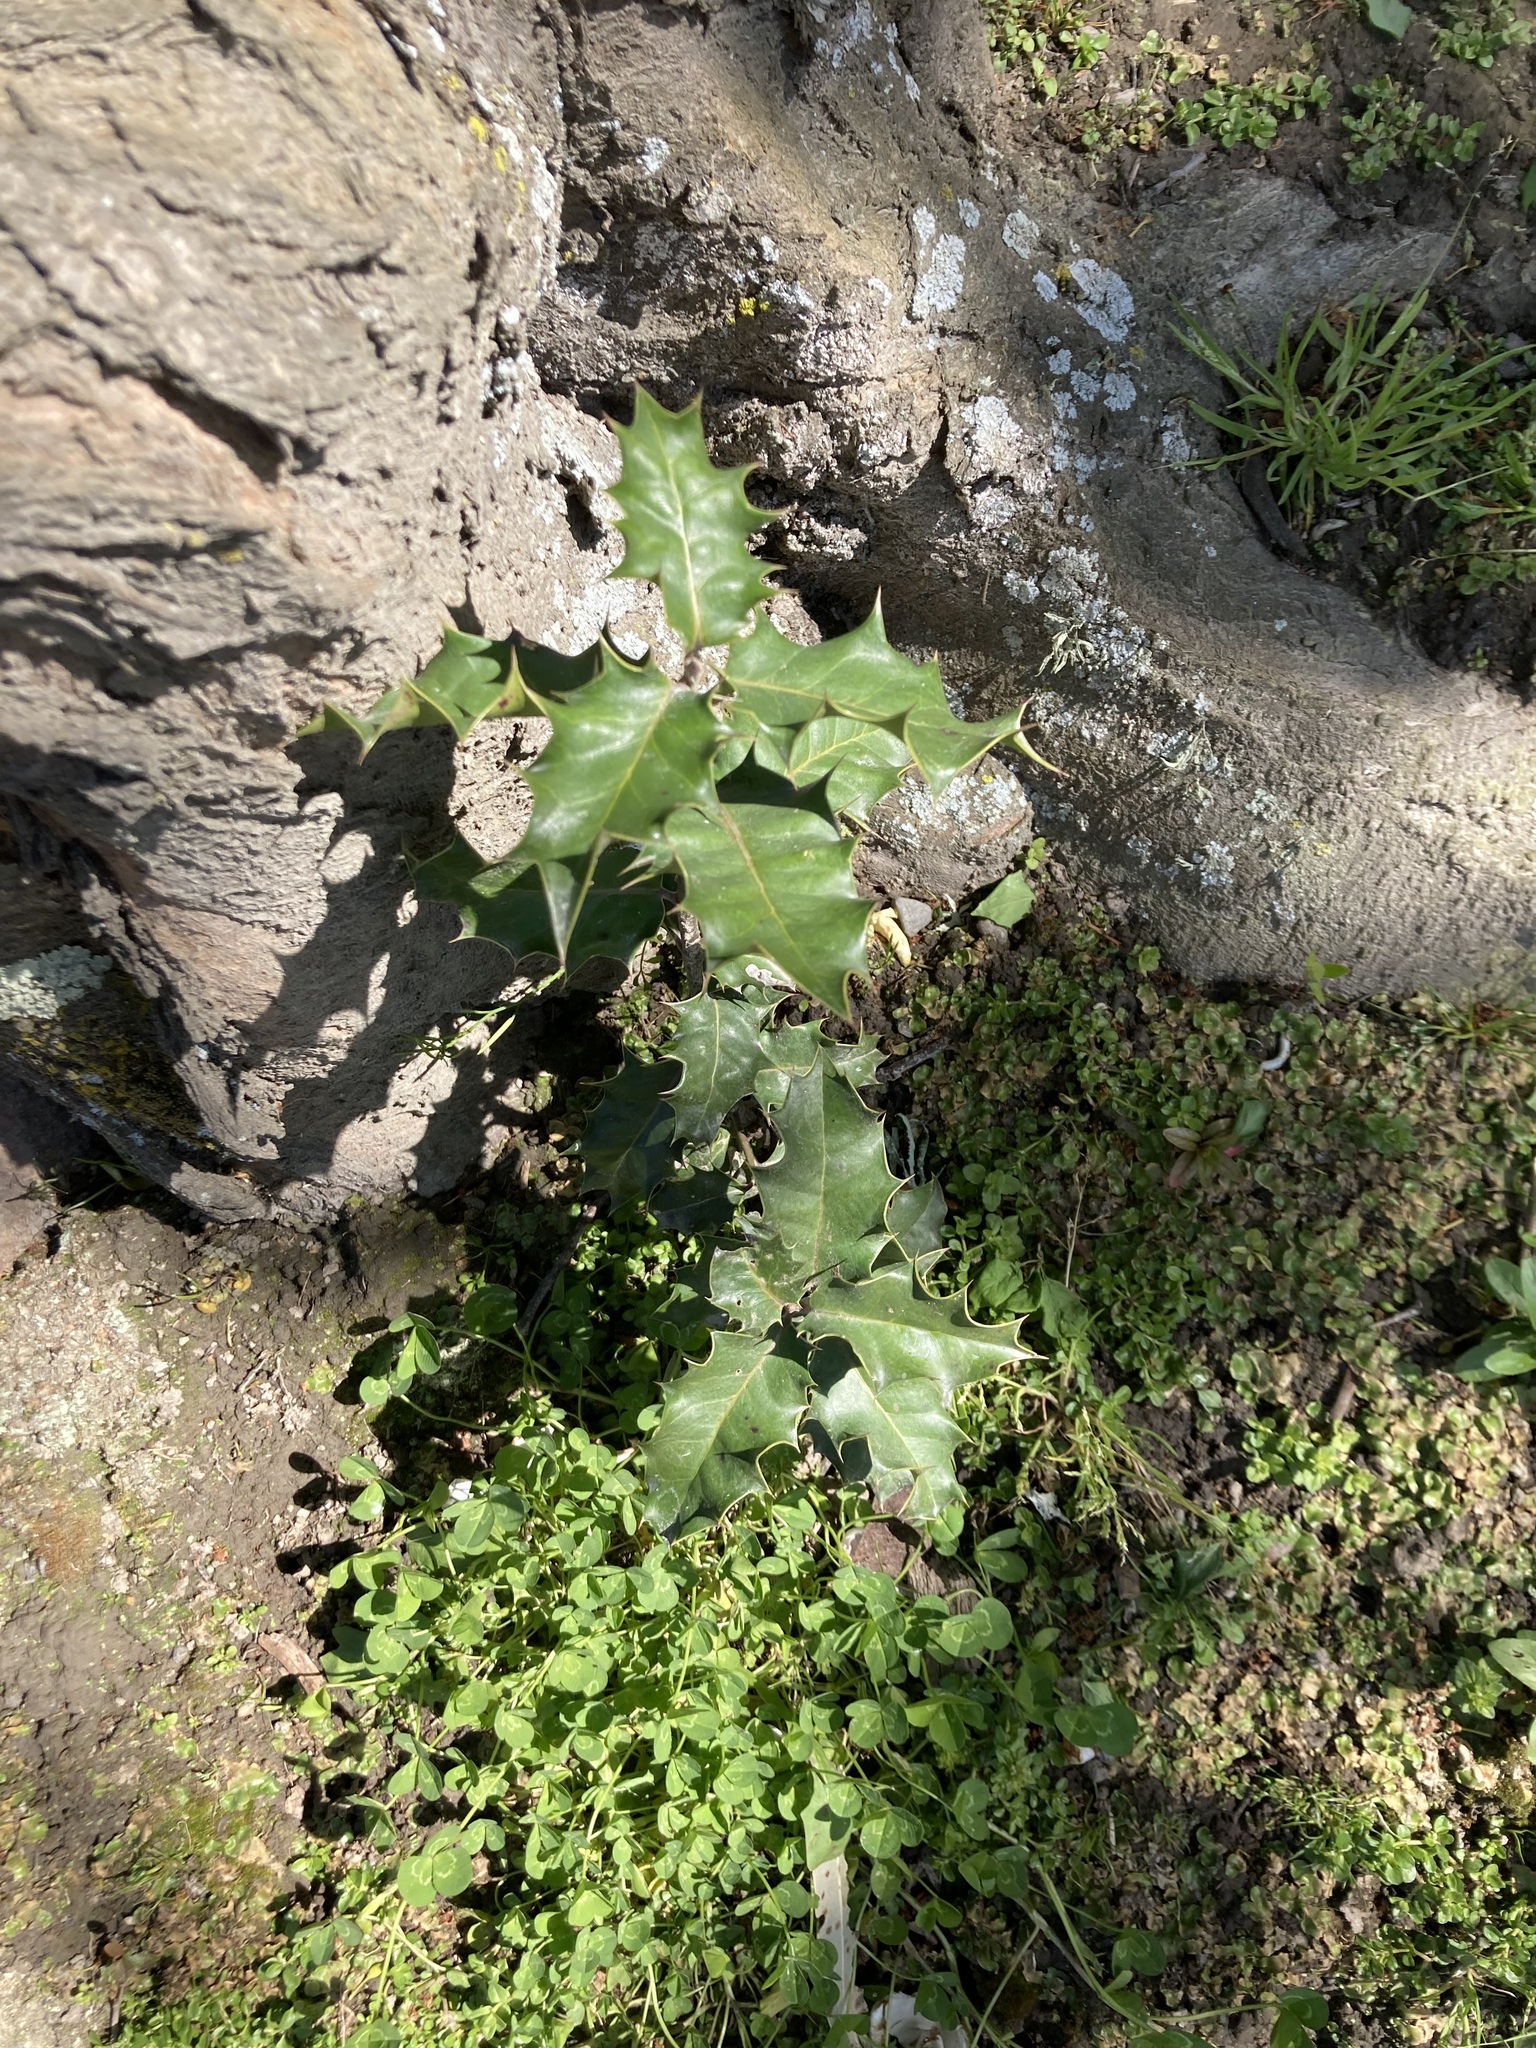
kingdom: Plantae
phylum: Tracheophyta
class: Magnoliopsida
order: Aquifoliales
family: Aquifoliaceae
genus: Ilex
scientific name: Ilex aquifolium
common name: English holly
